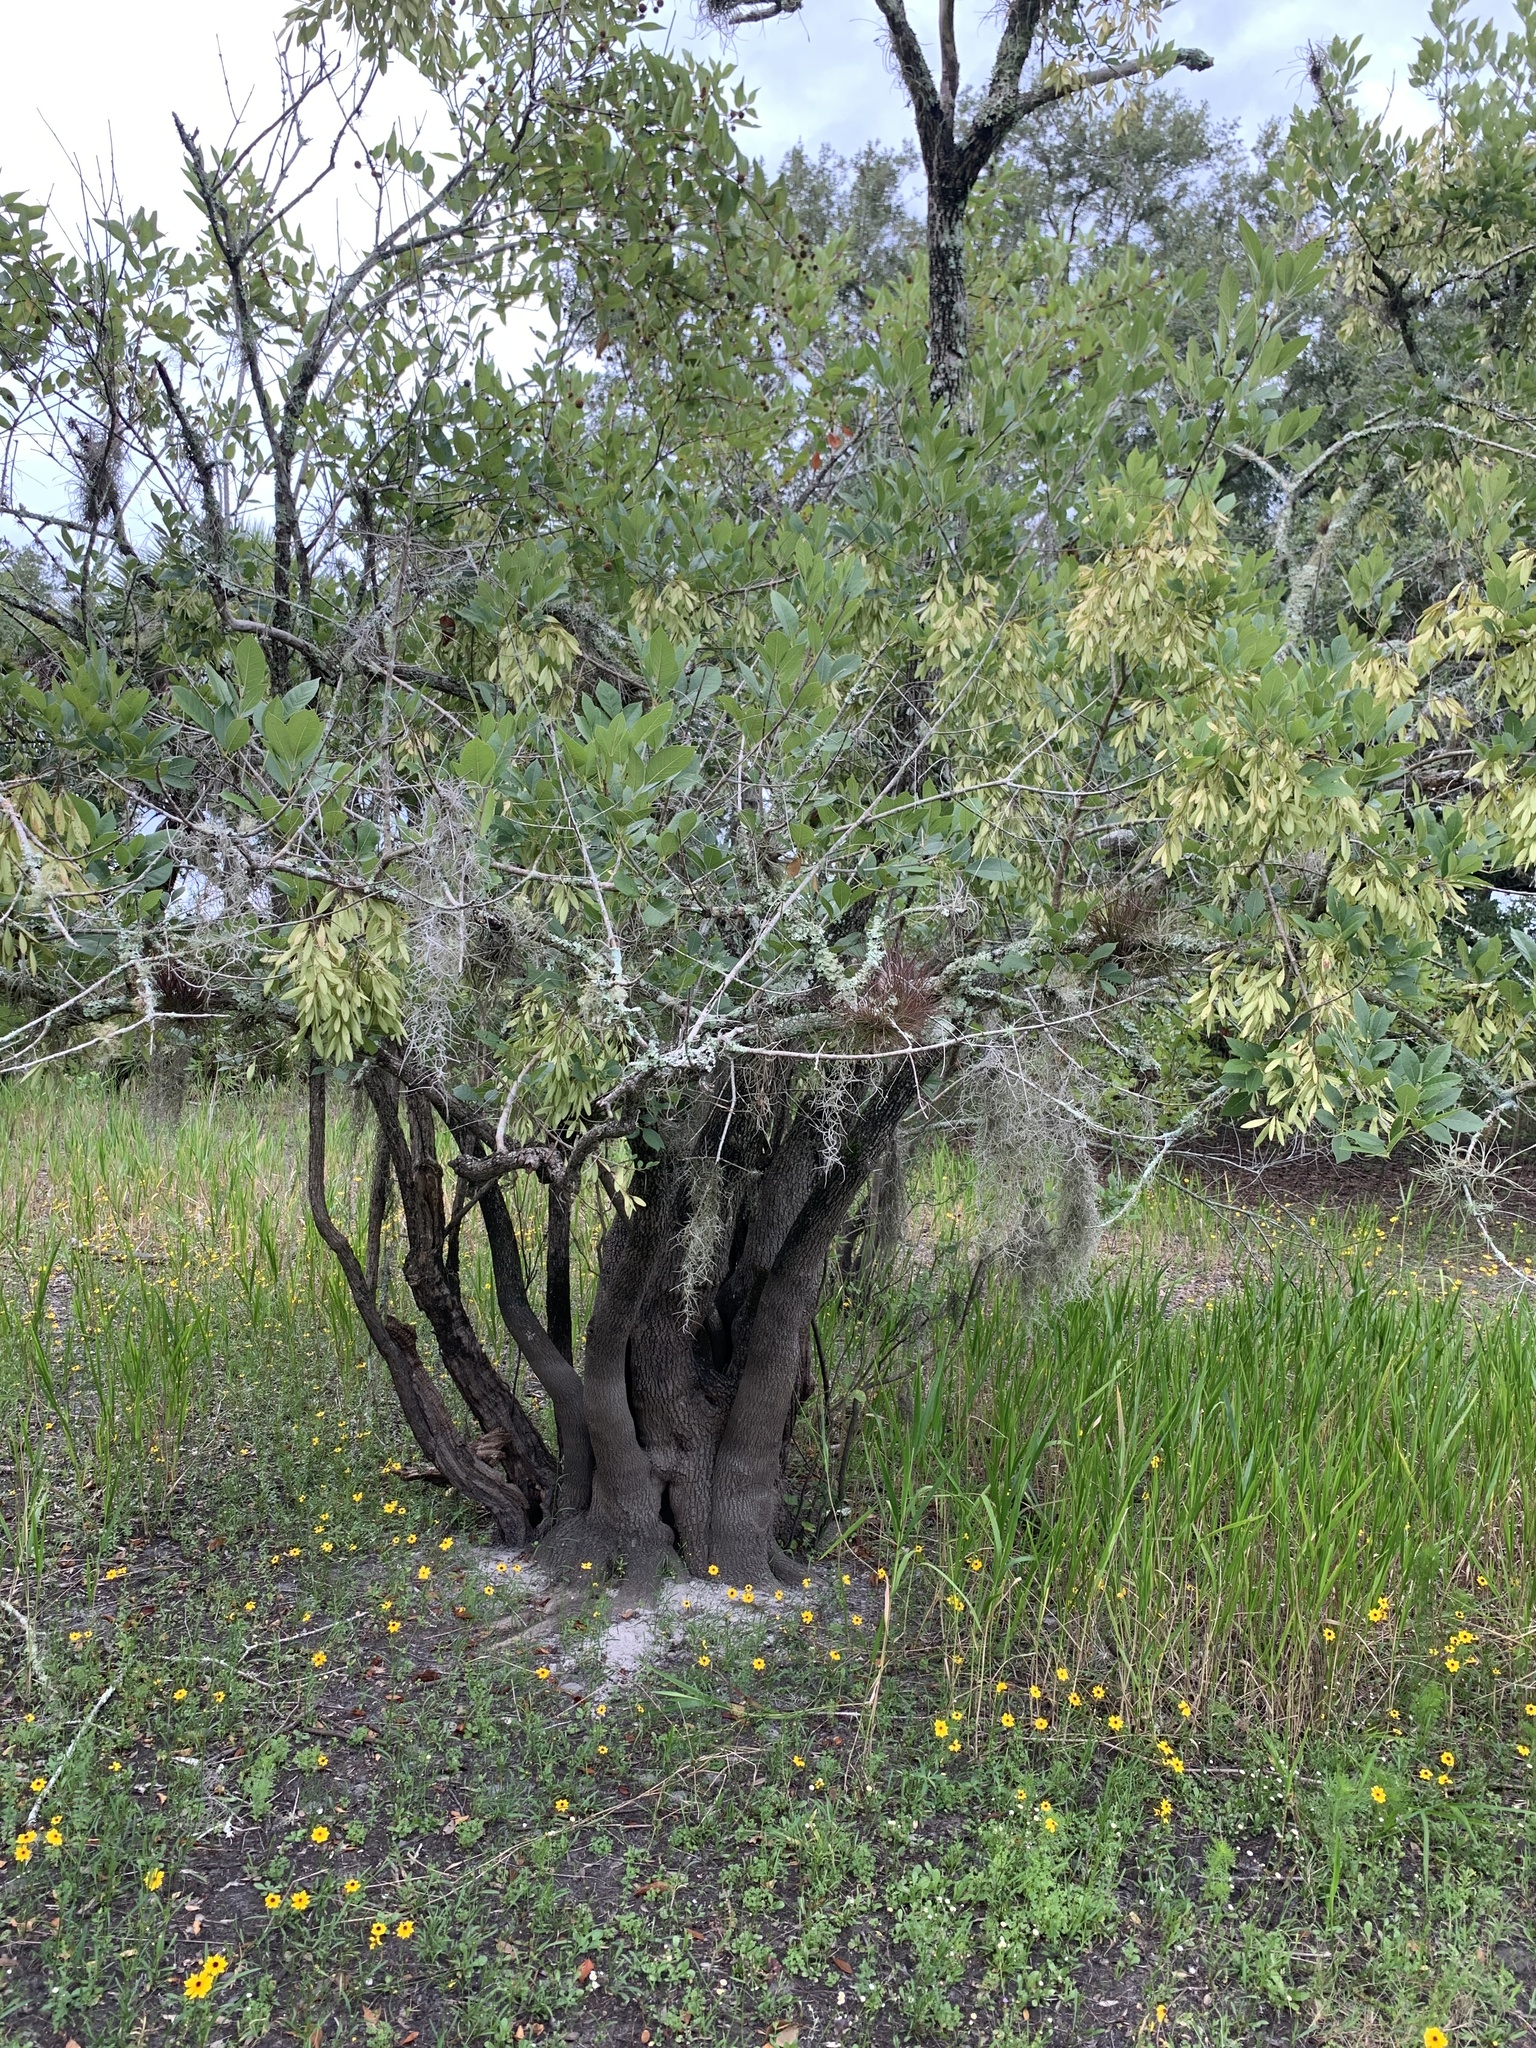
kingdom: Plantae
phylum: Tracheophyta
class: Magnoliopsida
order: Lamiales
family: Oleaceae
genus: Fraxinus
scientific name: Fraxinus caroliniana
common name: Carolina ash
